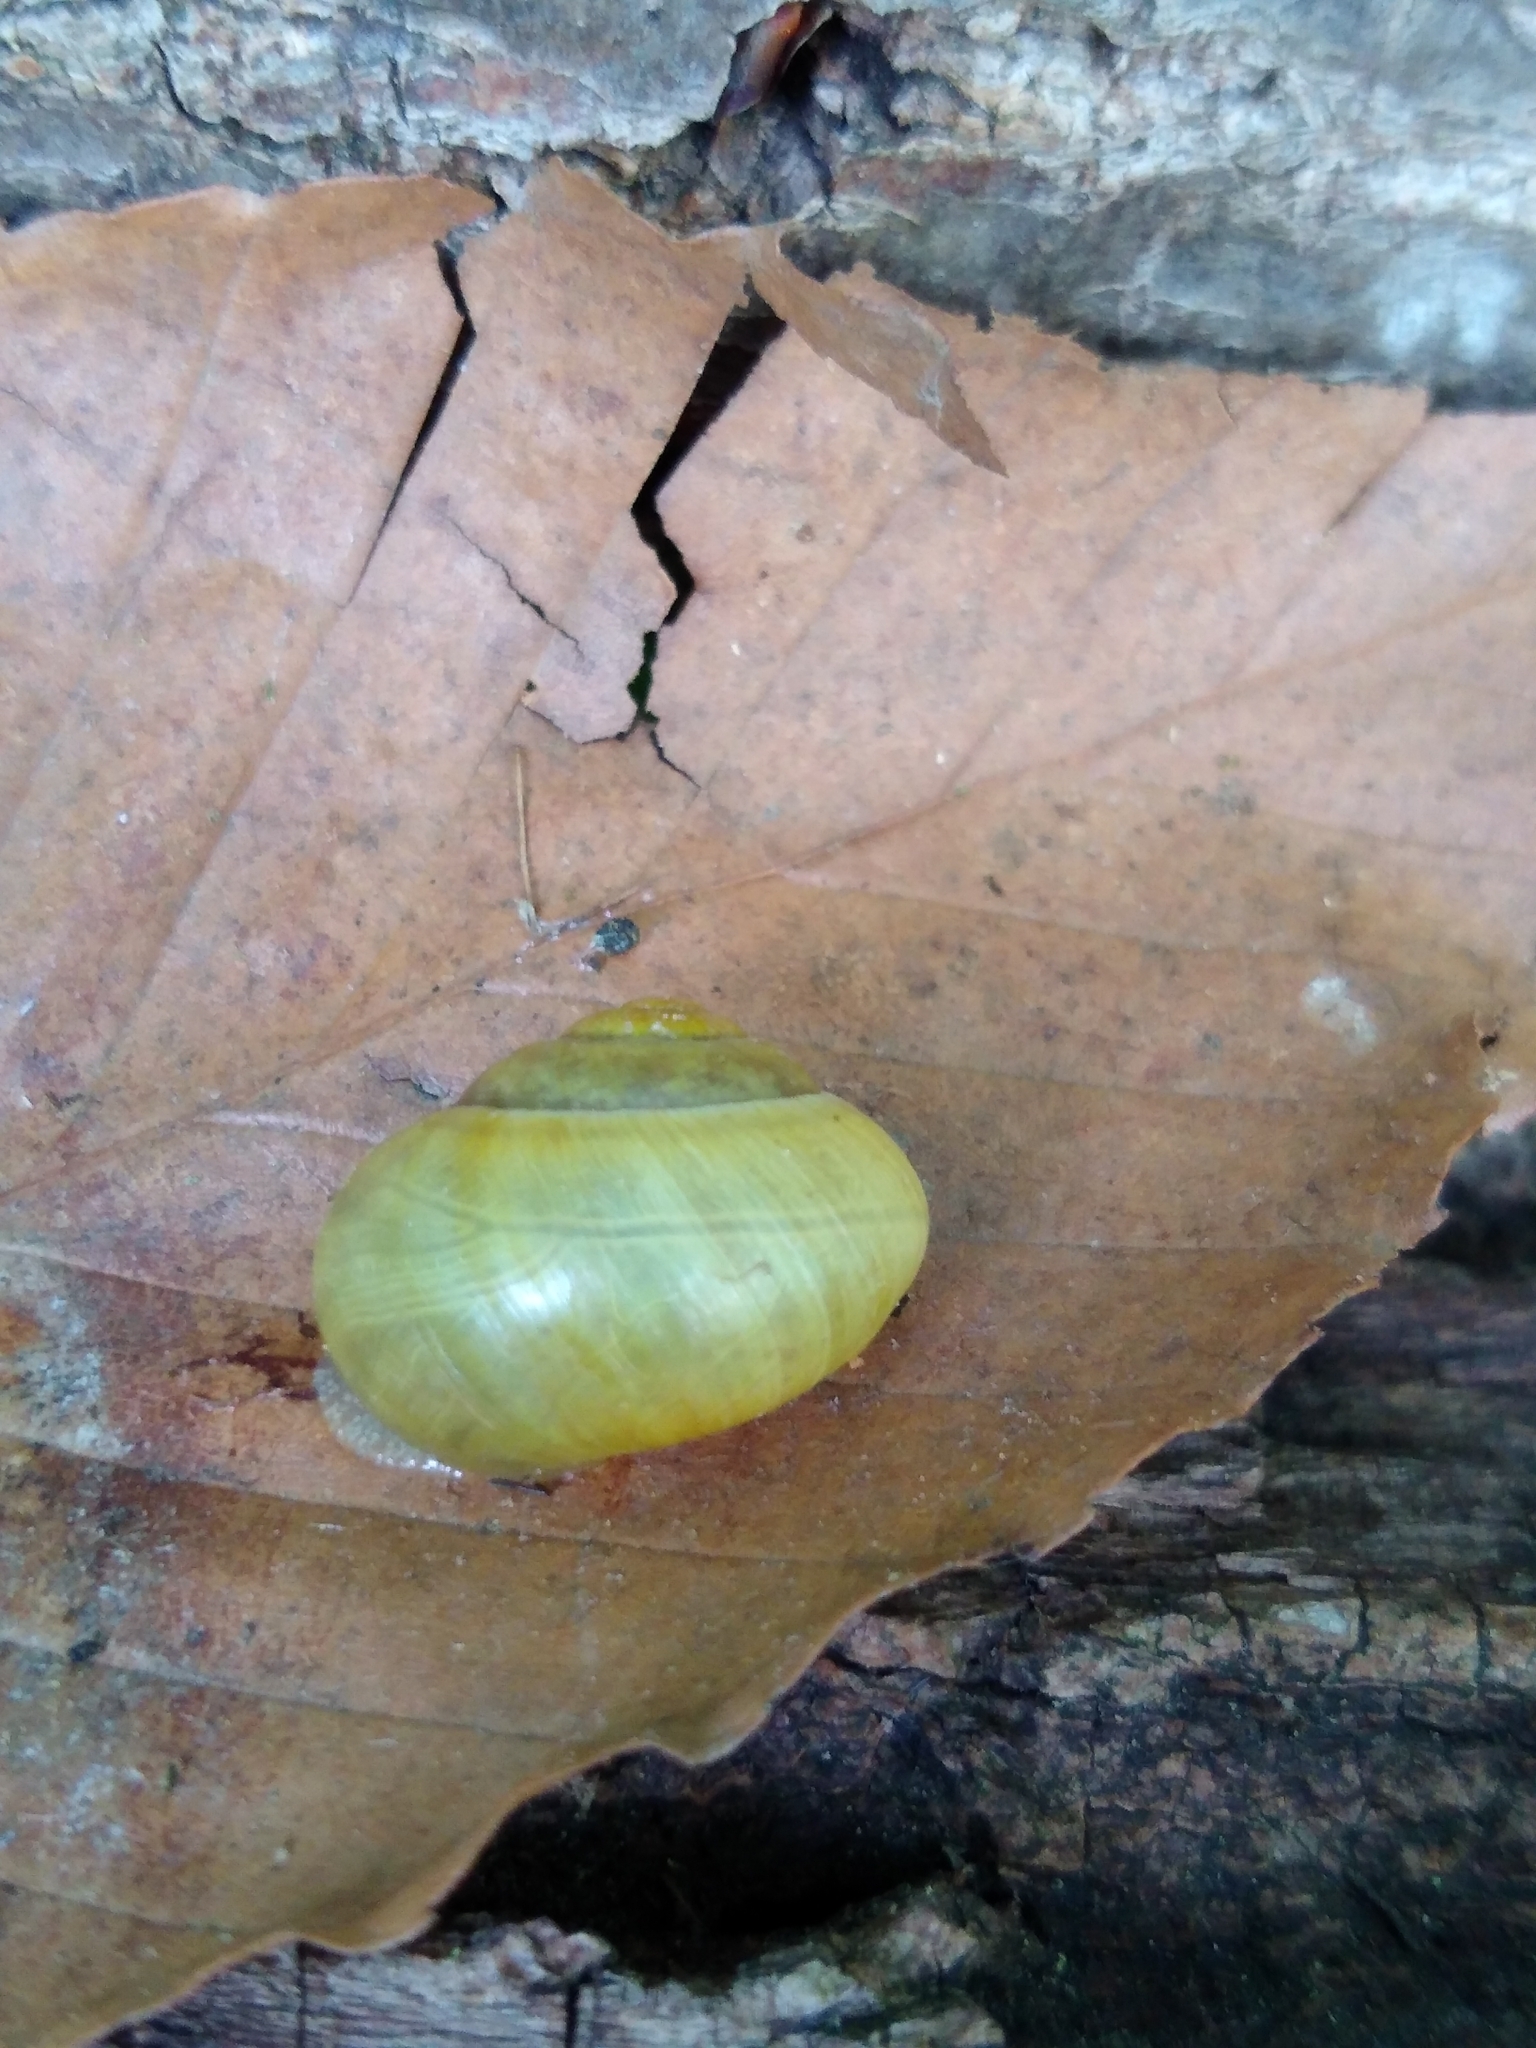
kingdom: Animalia
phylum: Mollusca
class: Gastropoda
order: Stylommatophora
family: Helicidae
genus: Cepaea
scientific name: Cepaea
